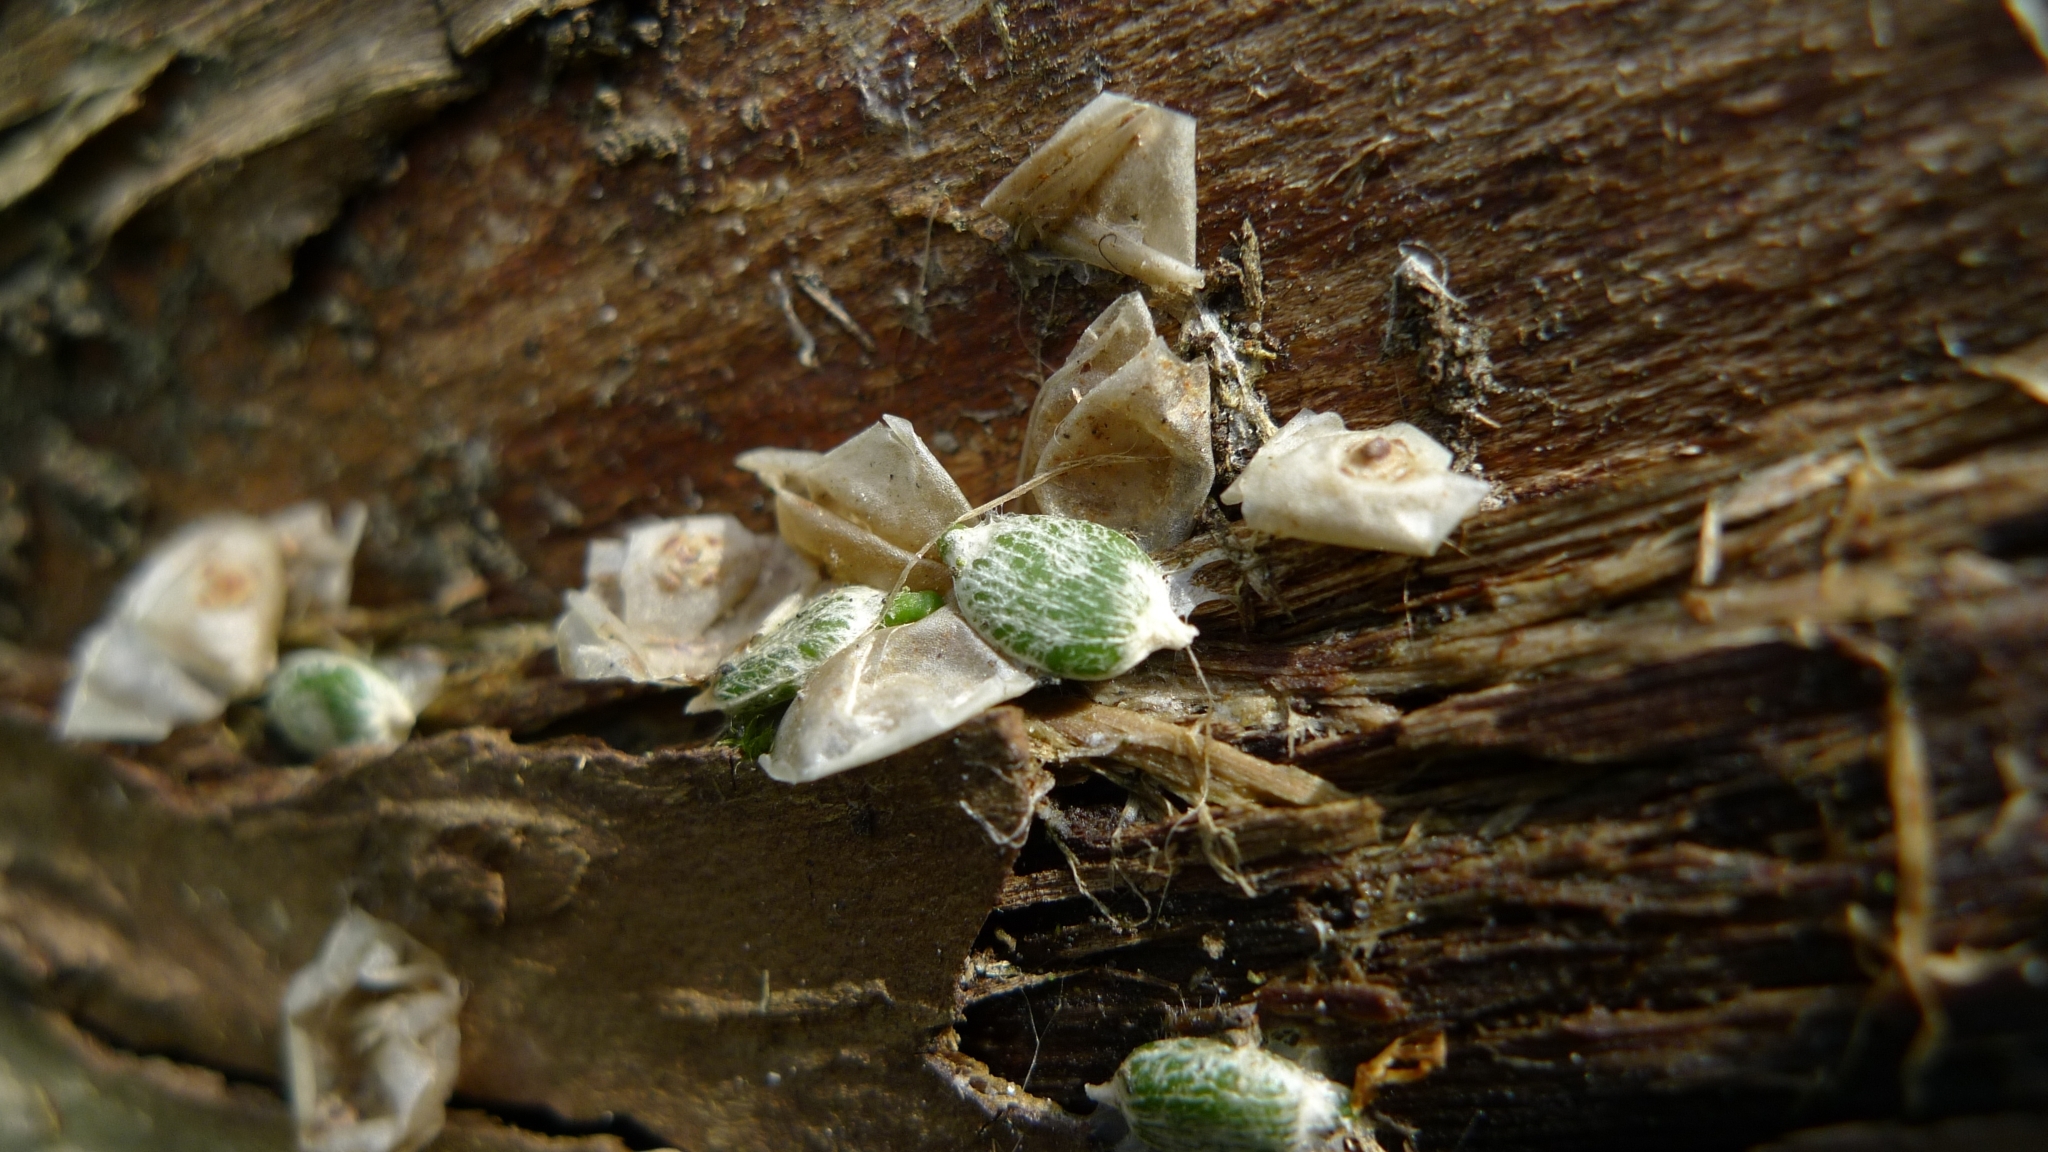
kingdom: Plantae
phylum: Tracheophyta
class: Magnoliopsida
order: Santalales
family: Viscaceae
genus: Viscum
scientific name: Viscum album
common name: Mistletoe
